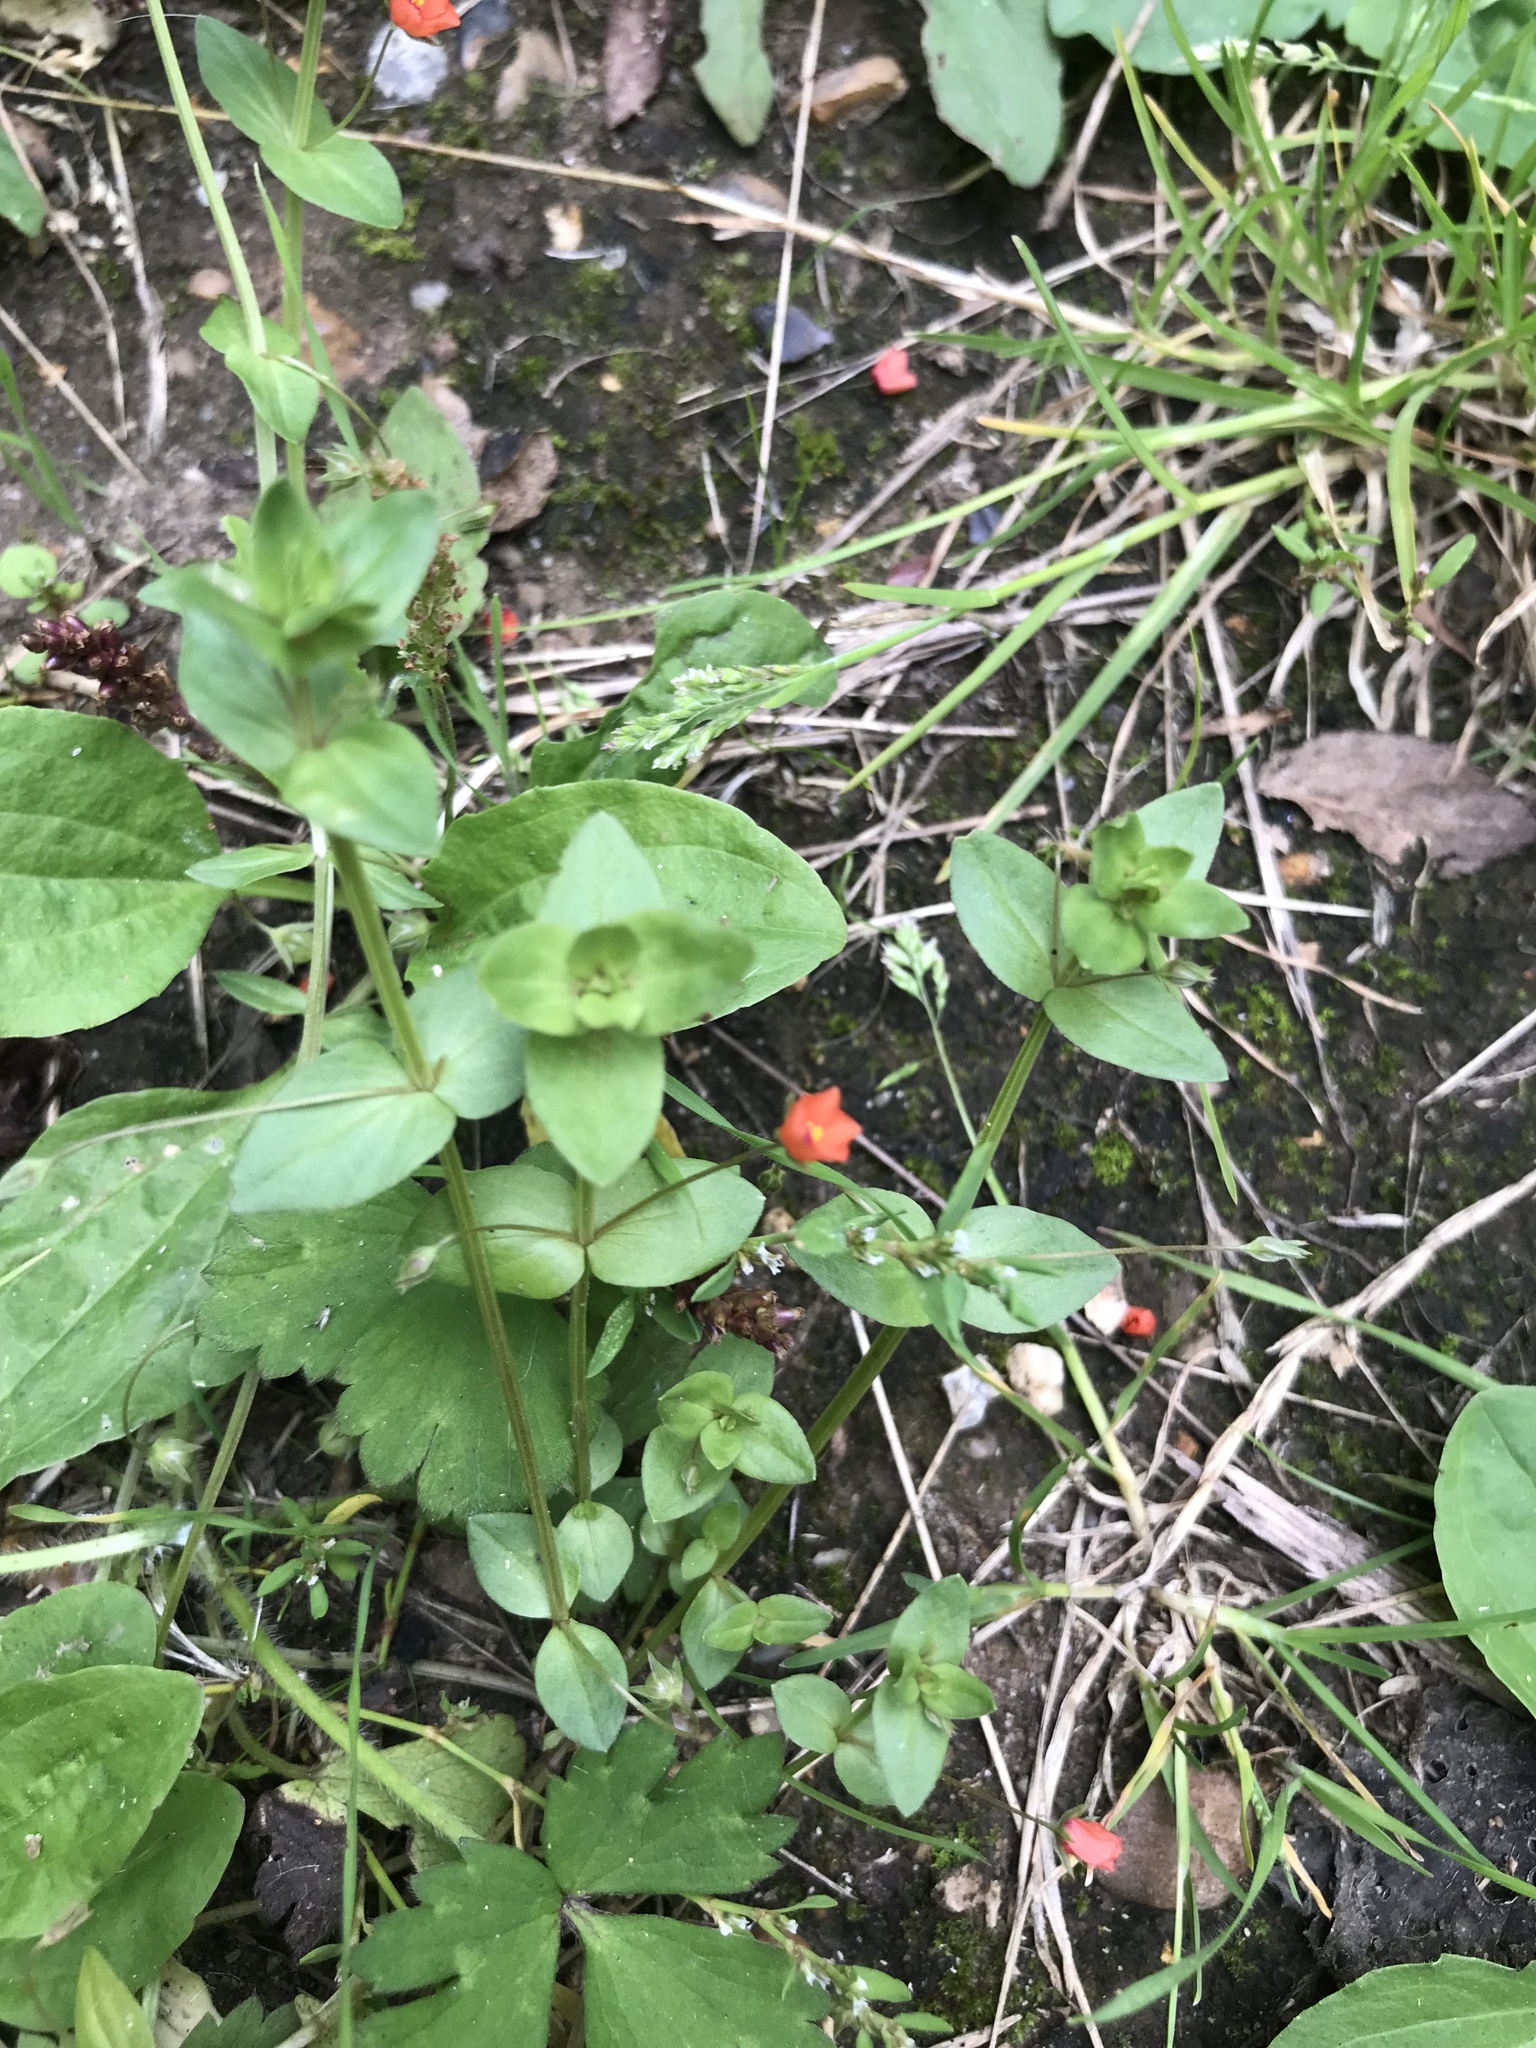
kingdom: Plantae
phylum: Tracheophyta
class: Magnoliopsida
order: Ericales
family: Primulaceae
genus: Lysimachia
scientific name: Lysimachia arvensis
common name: Scarlet pimpernel
